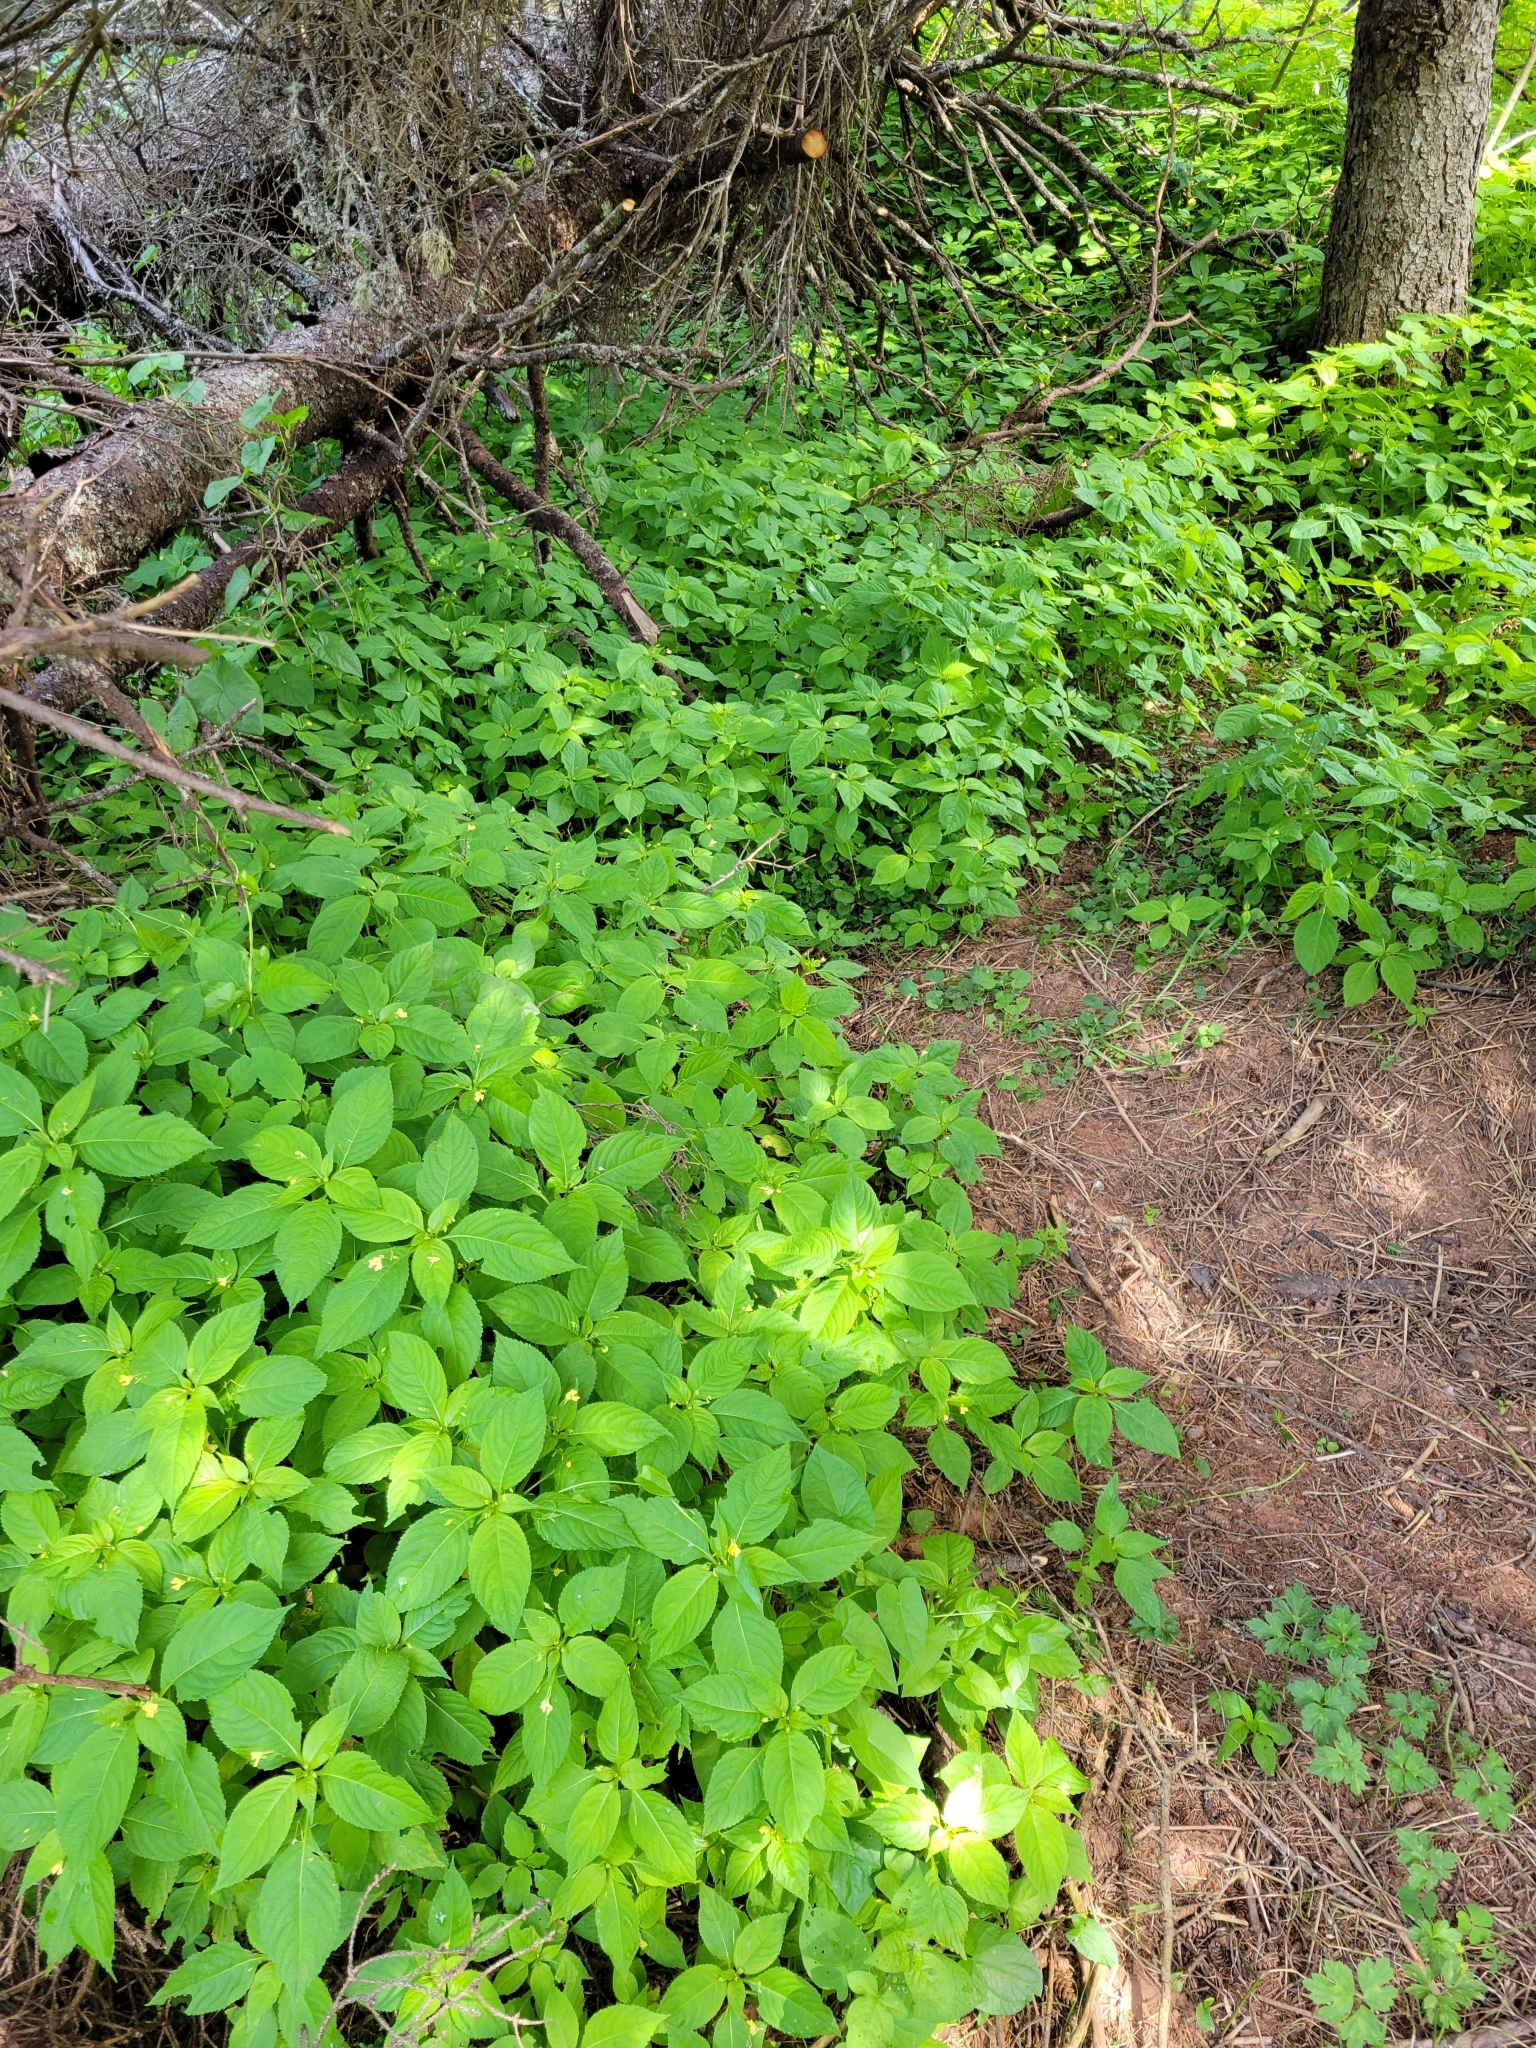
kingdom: Plantae
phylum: Tracheophyta
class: Magnoliopsida
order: Ericales
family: Balsaminaceae
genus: Impatiens
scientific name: Impatiens parviflora
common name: Small balsam
